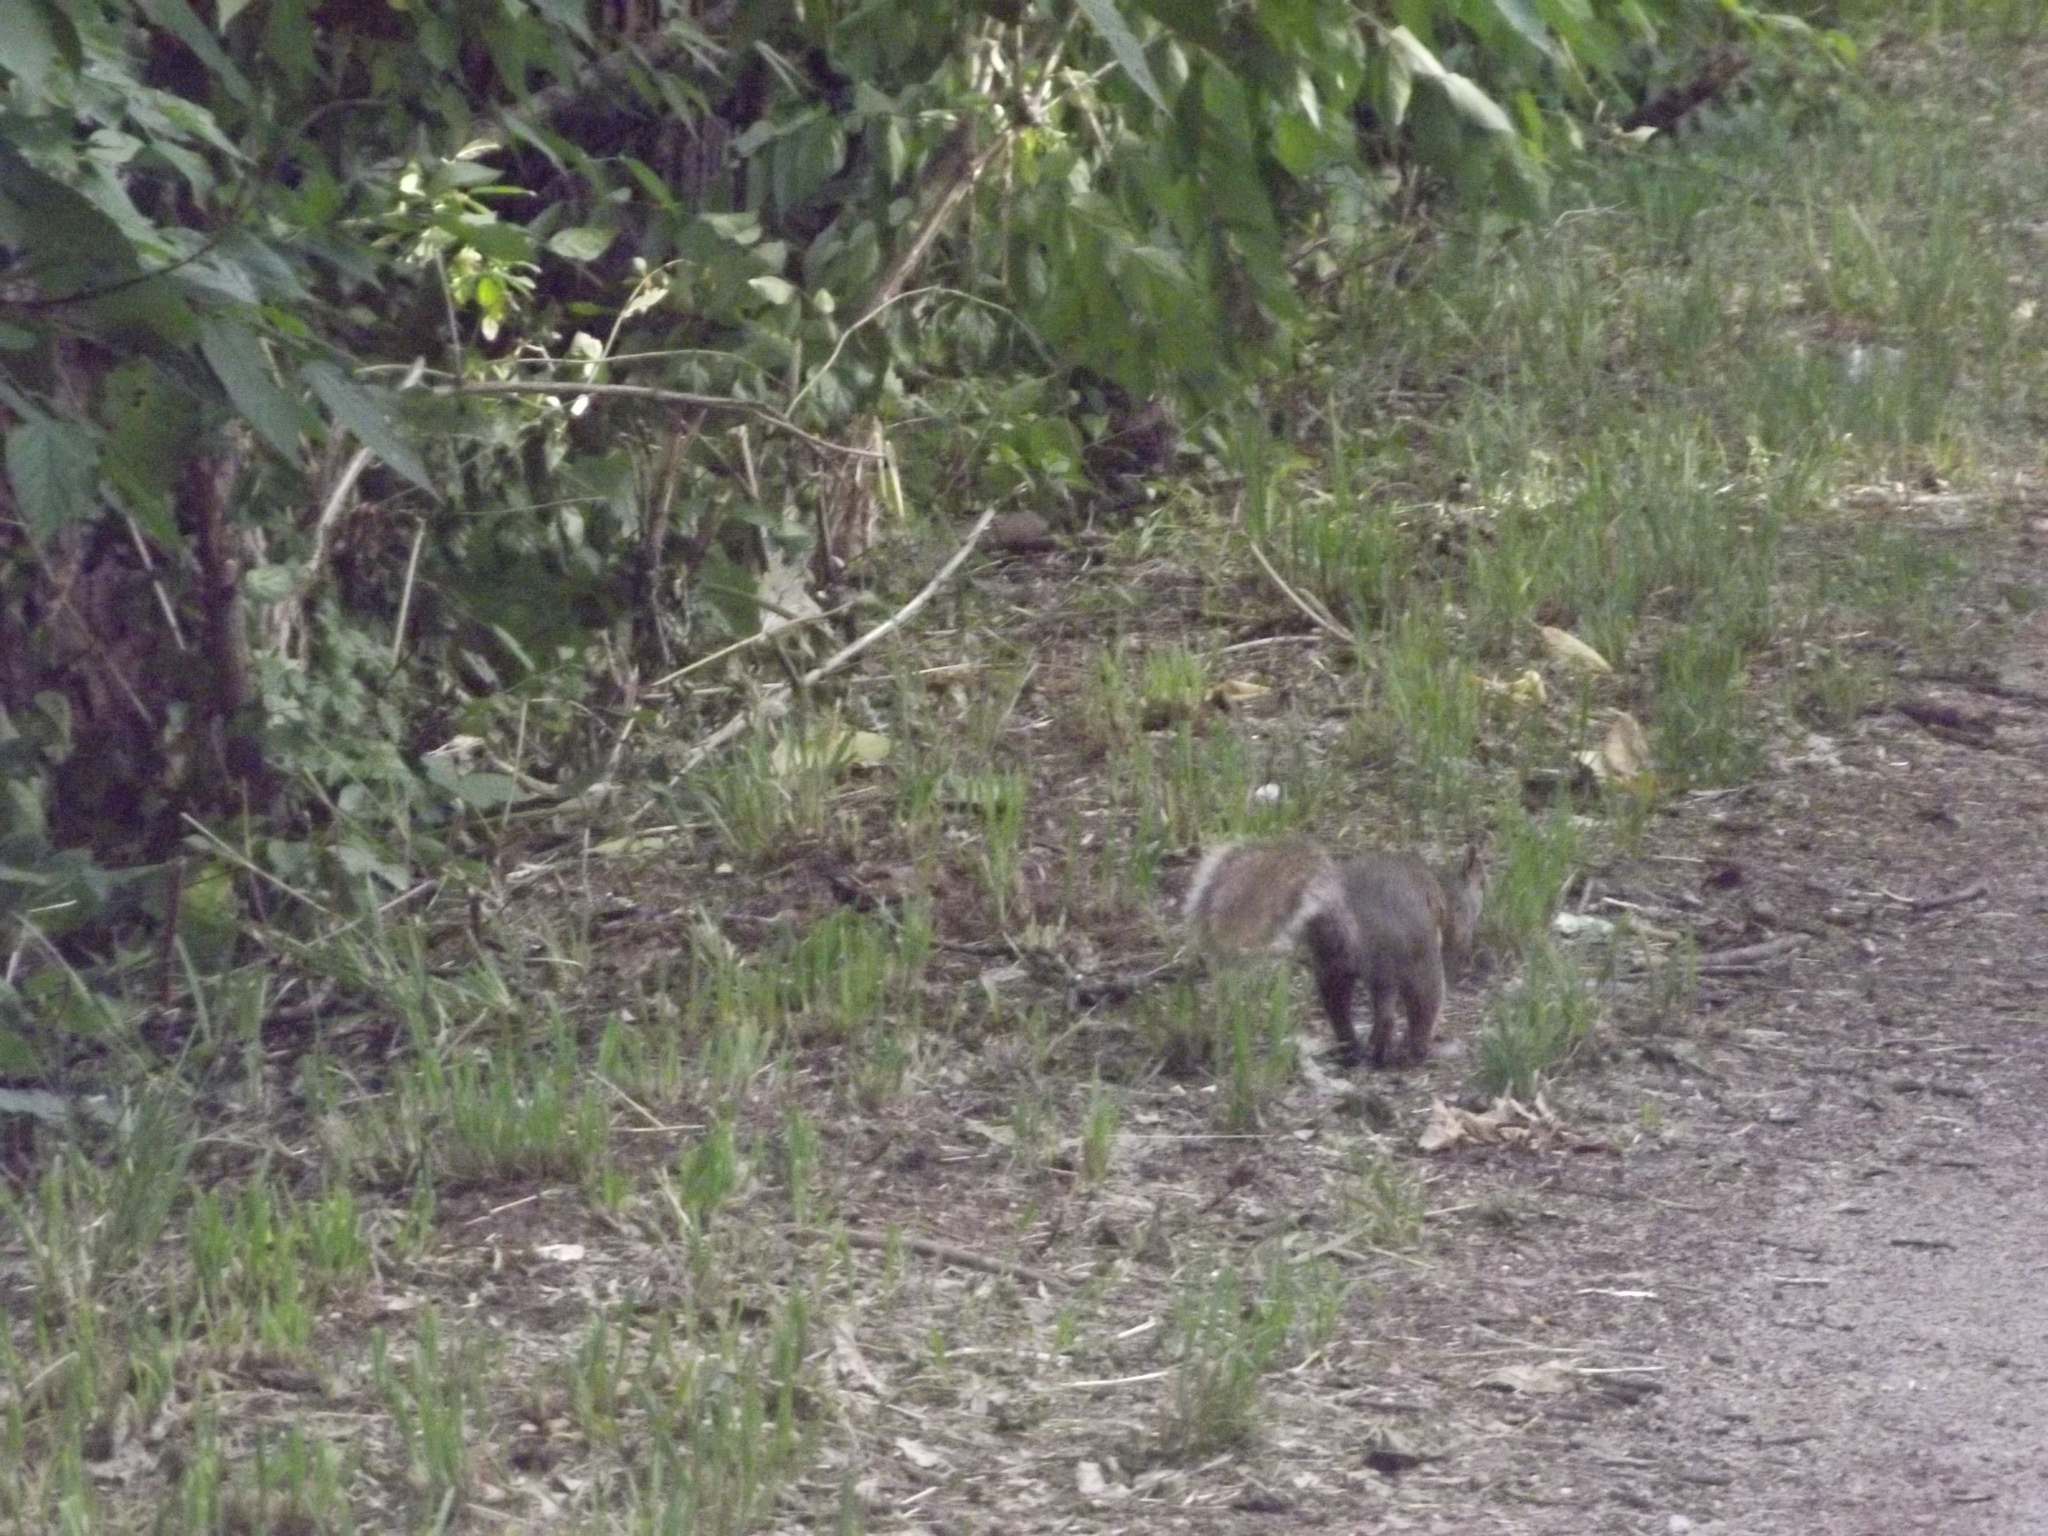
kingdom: Animalia
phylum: Chordata
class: Mammalia
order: Rodentia
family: Sciuridae
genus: Sciurus
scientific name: Sciurus carolinensis
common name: Eastern gray squirrel
